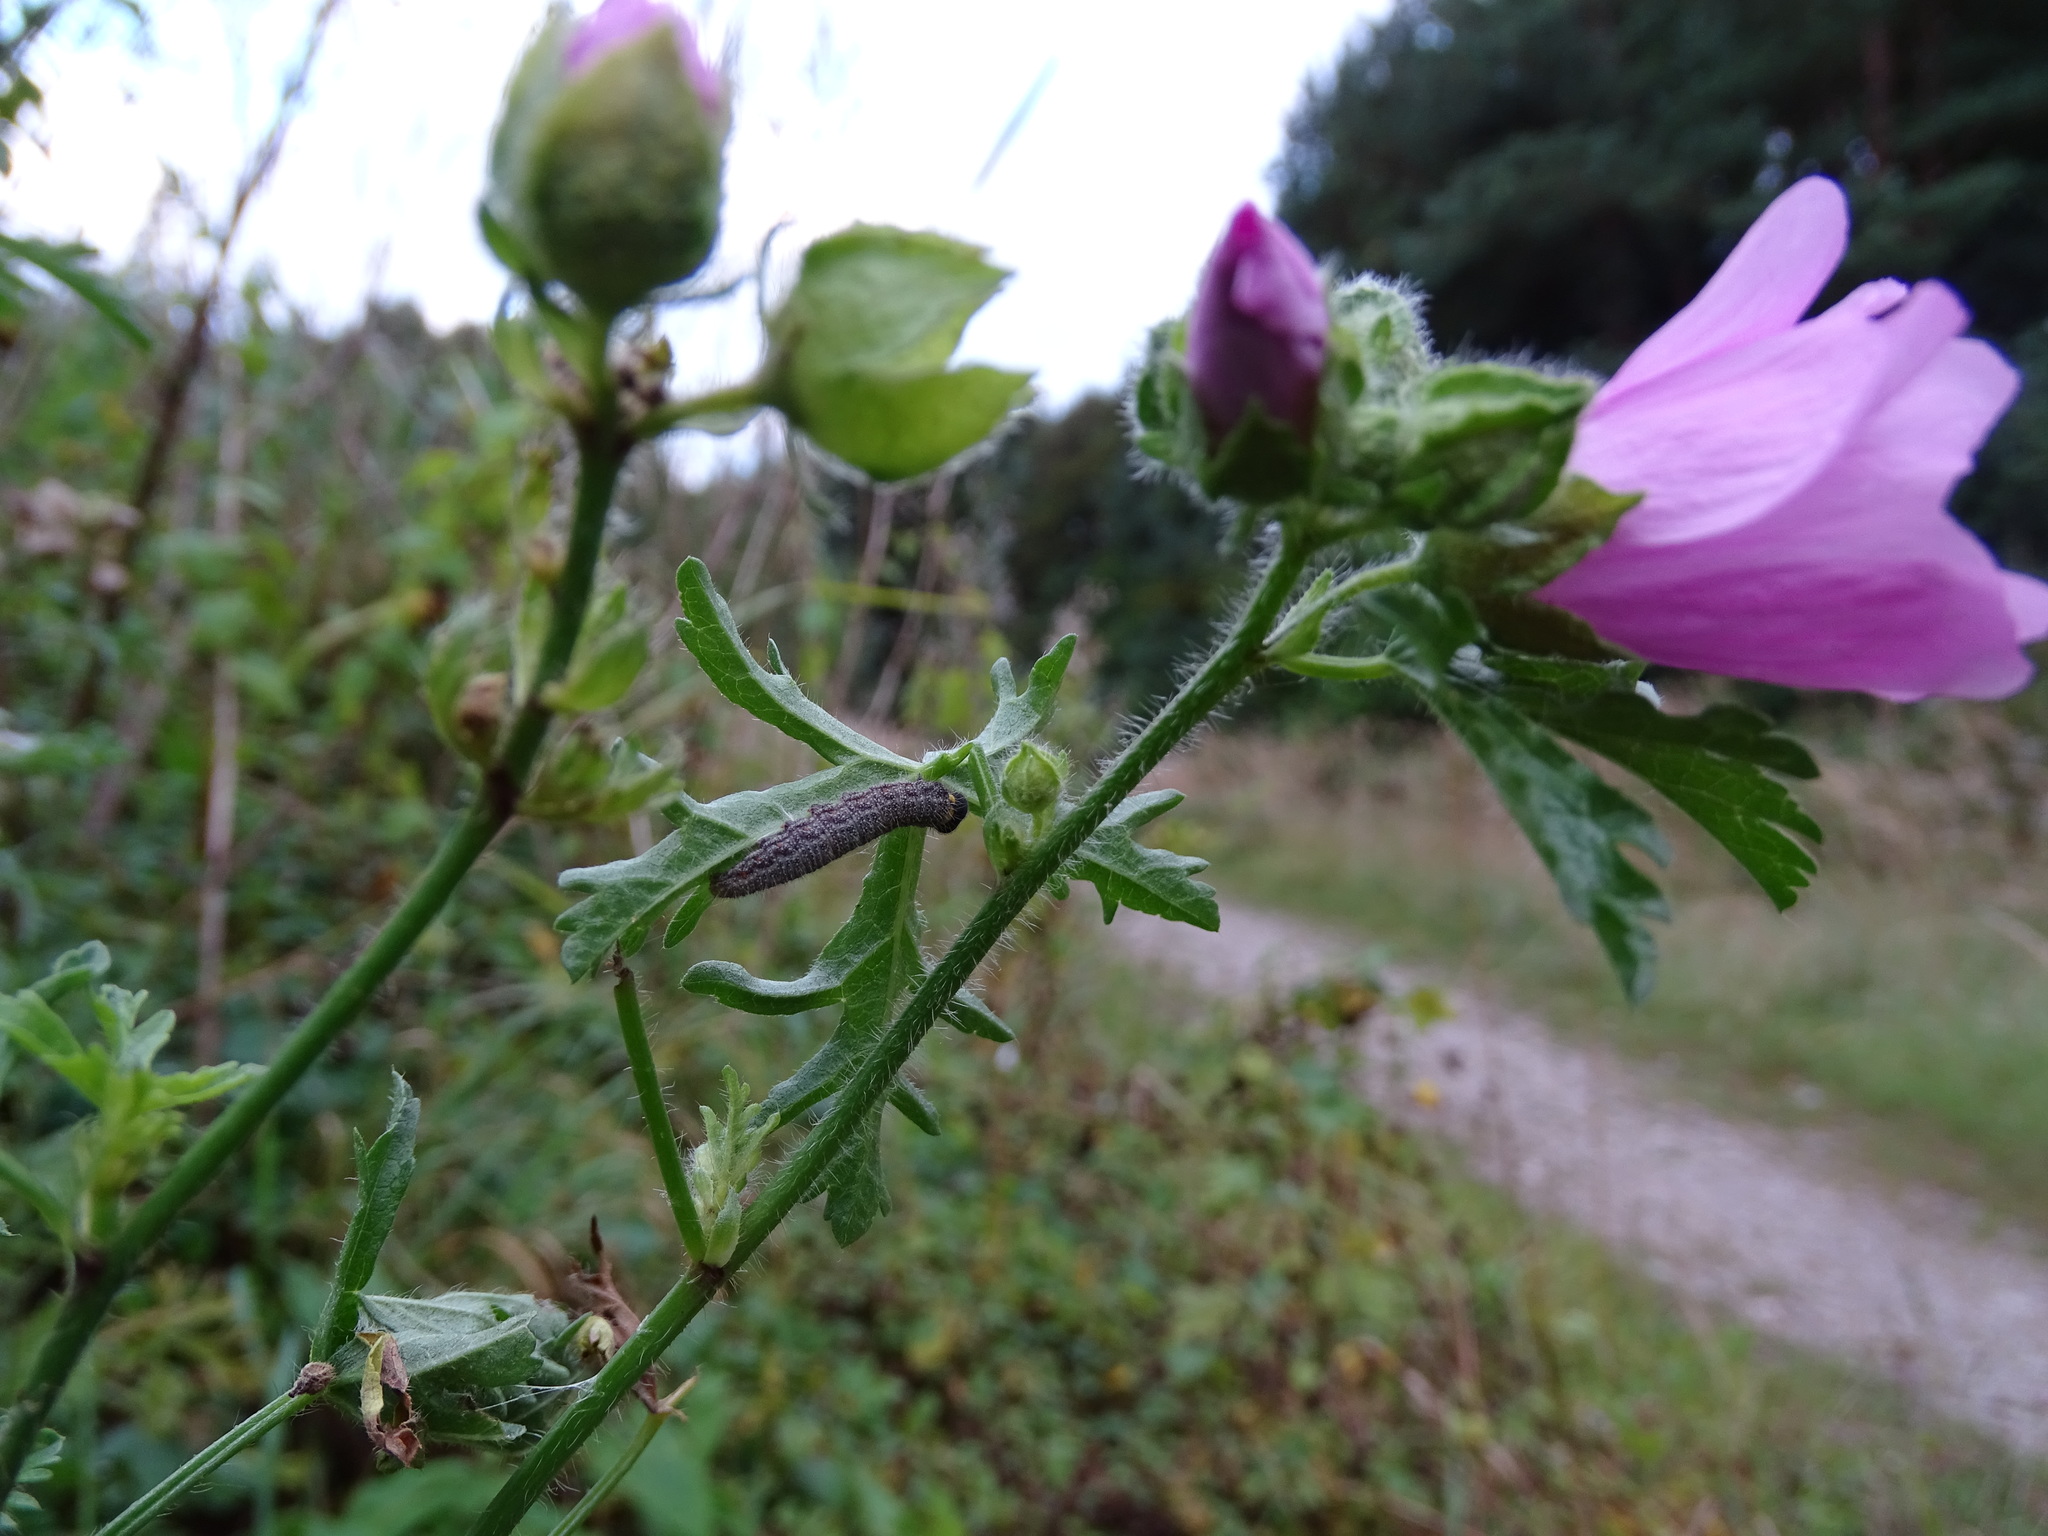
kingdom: Animalia
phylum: Arthropoda
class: Insecta
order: Lepidoptera
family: Hesperiidae
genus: Carcharodus
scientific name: Carcharodus alceae
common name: Mallow skipper
